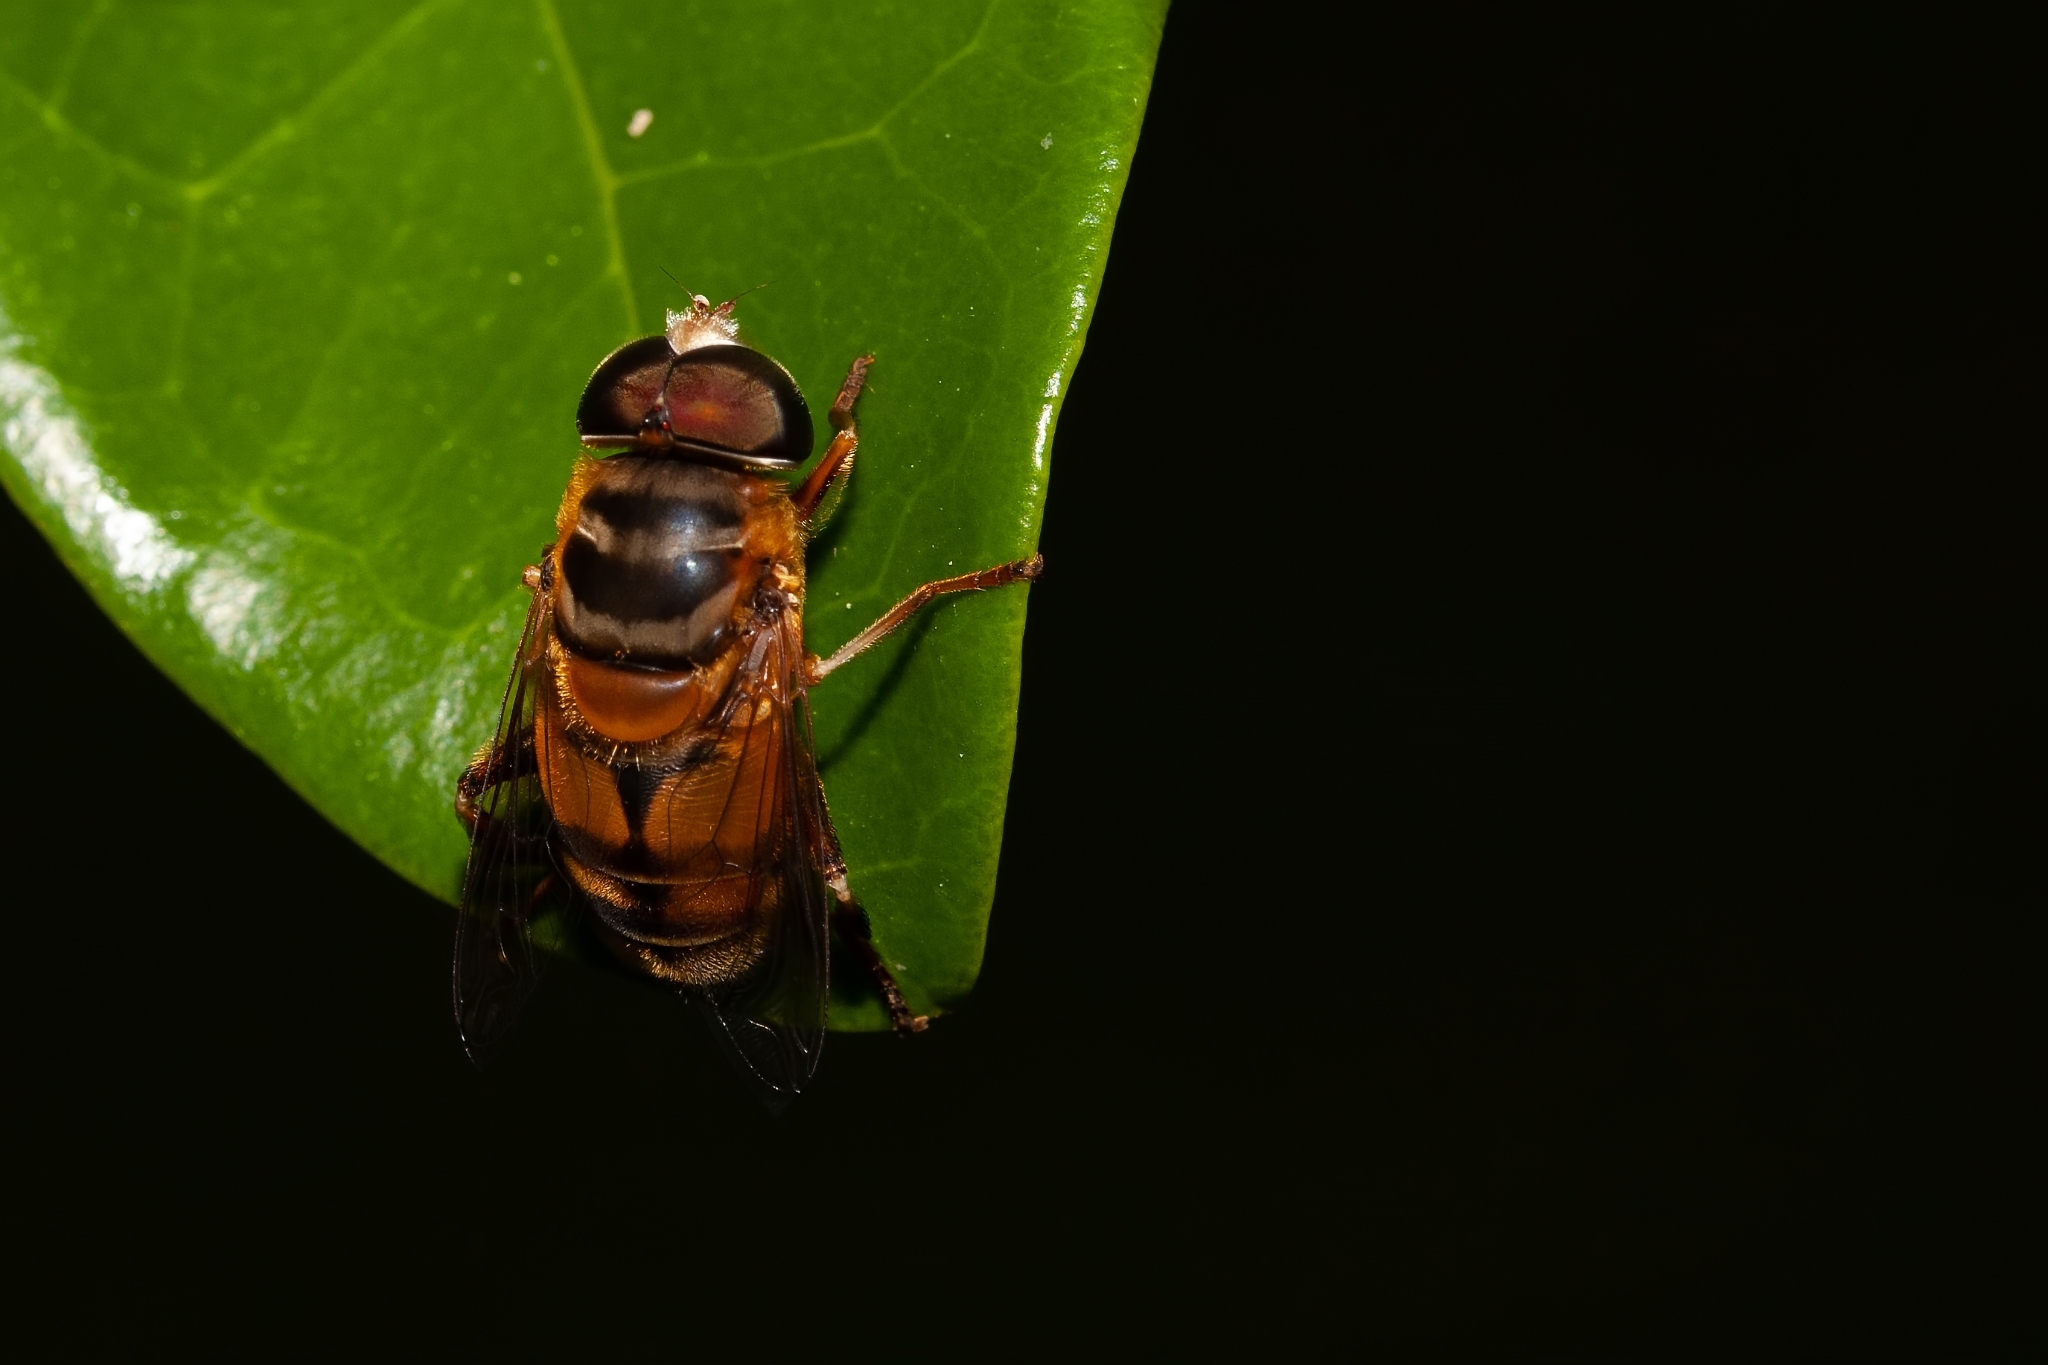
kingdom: Animalia
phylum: Arthropoda
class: Insecta
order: Diptera
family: Syrphidae
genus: Palpada
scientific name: Palpada vinetorum
